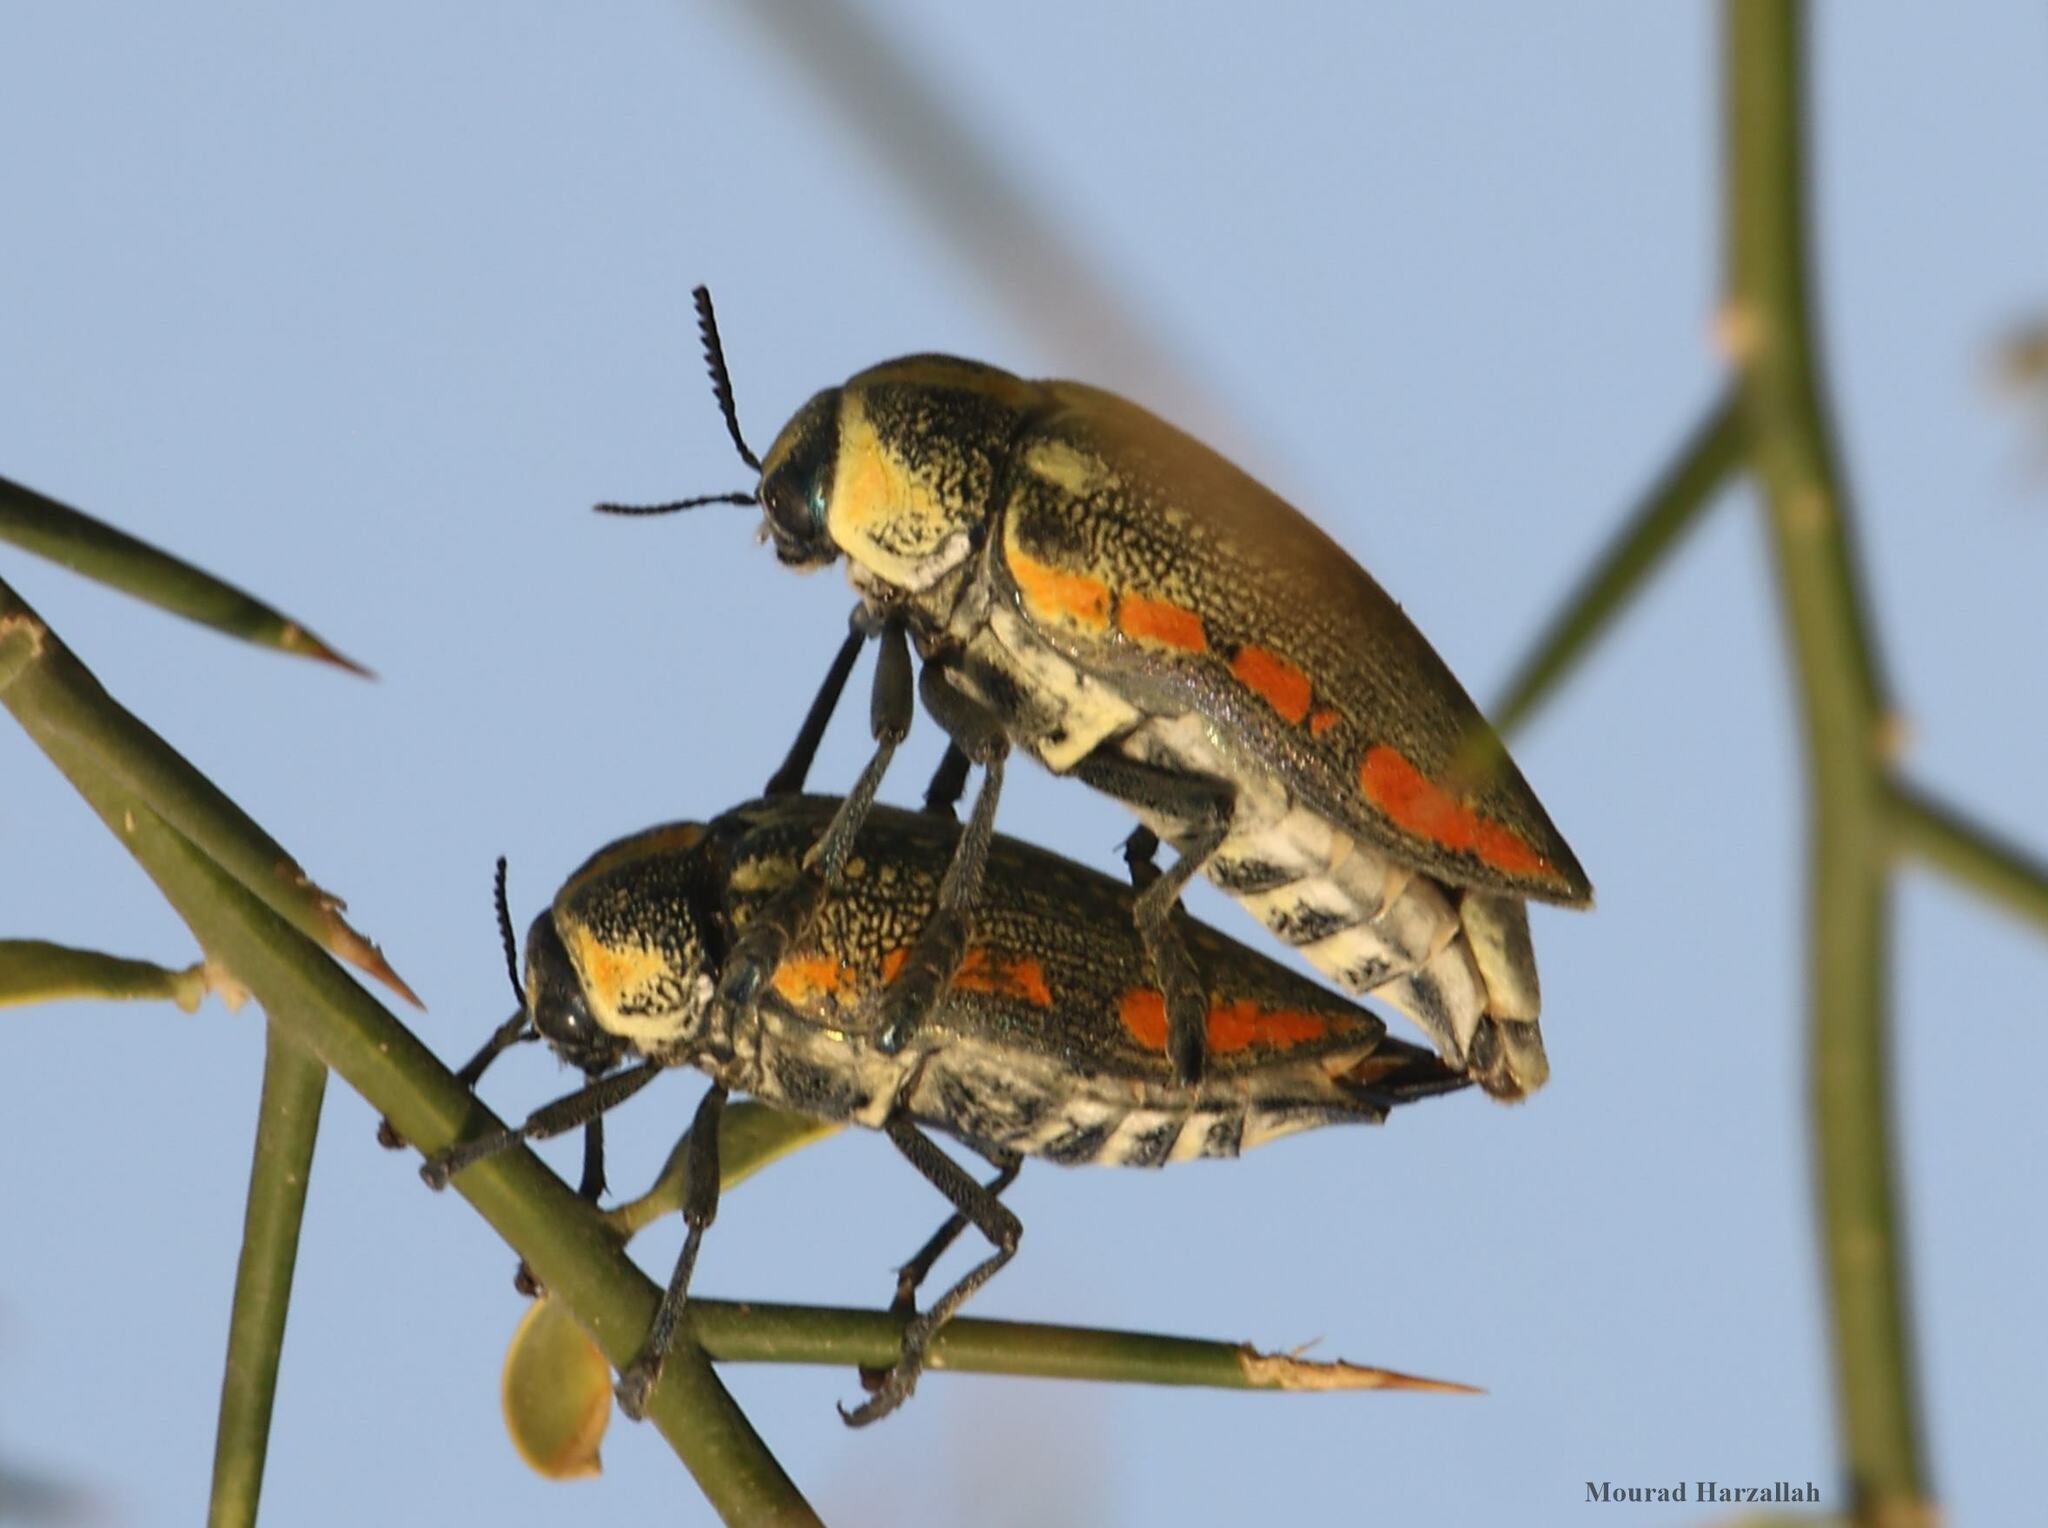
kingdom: Animalia
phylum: Arthropoda
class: Insecta
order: Coleoptera
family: Buprestidae
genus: Julodis
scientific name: Julodis fimbriata
